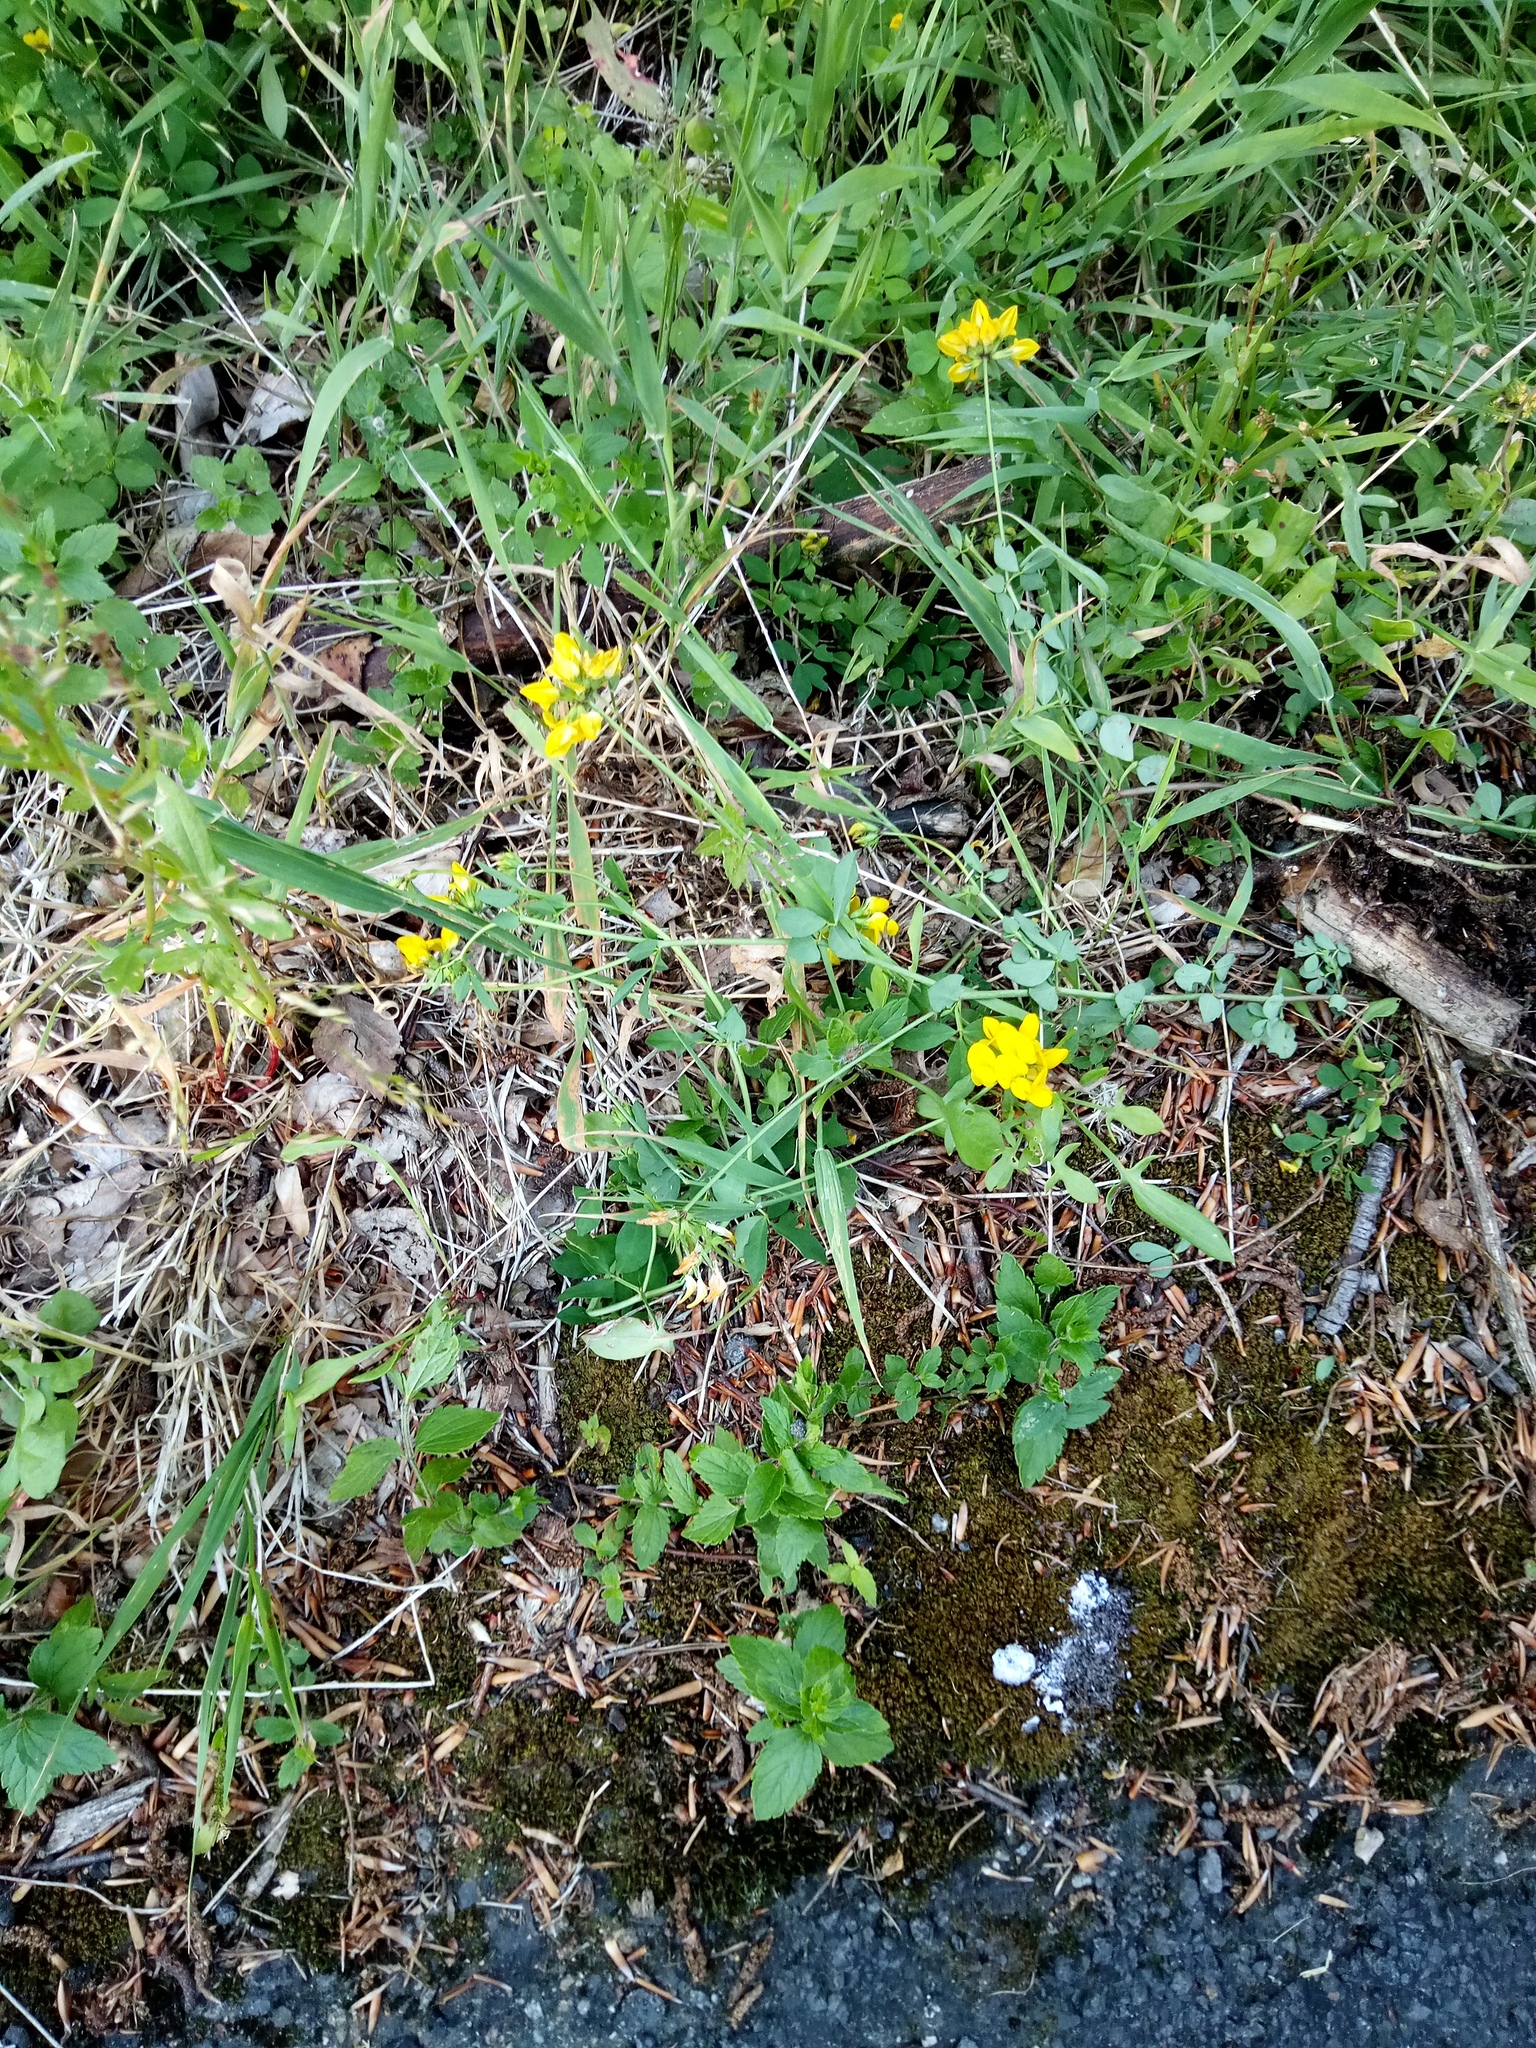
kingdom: Plantae
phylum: Tracheophyta
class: Magnoliopsida
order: Fabales
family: Fabaceae
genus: Lotus
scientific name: Lotus corniculatus
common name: Common bird's-foot-trefoil
